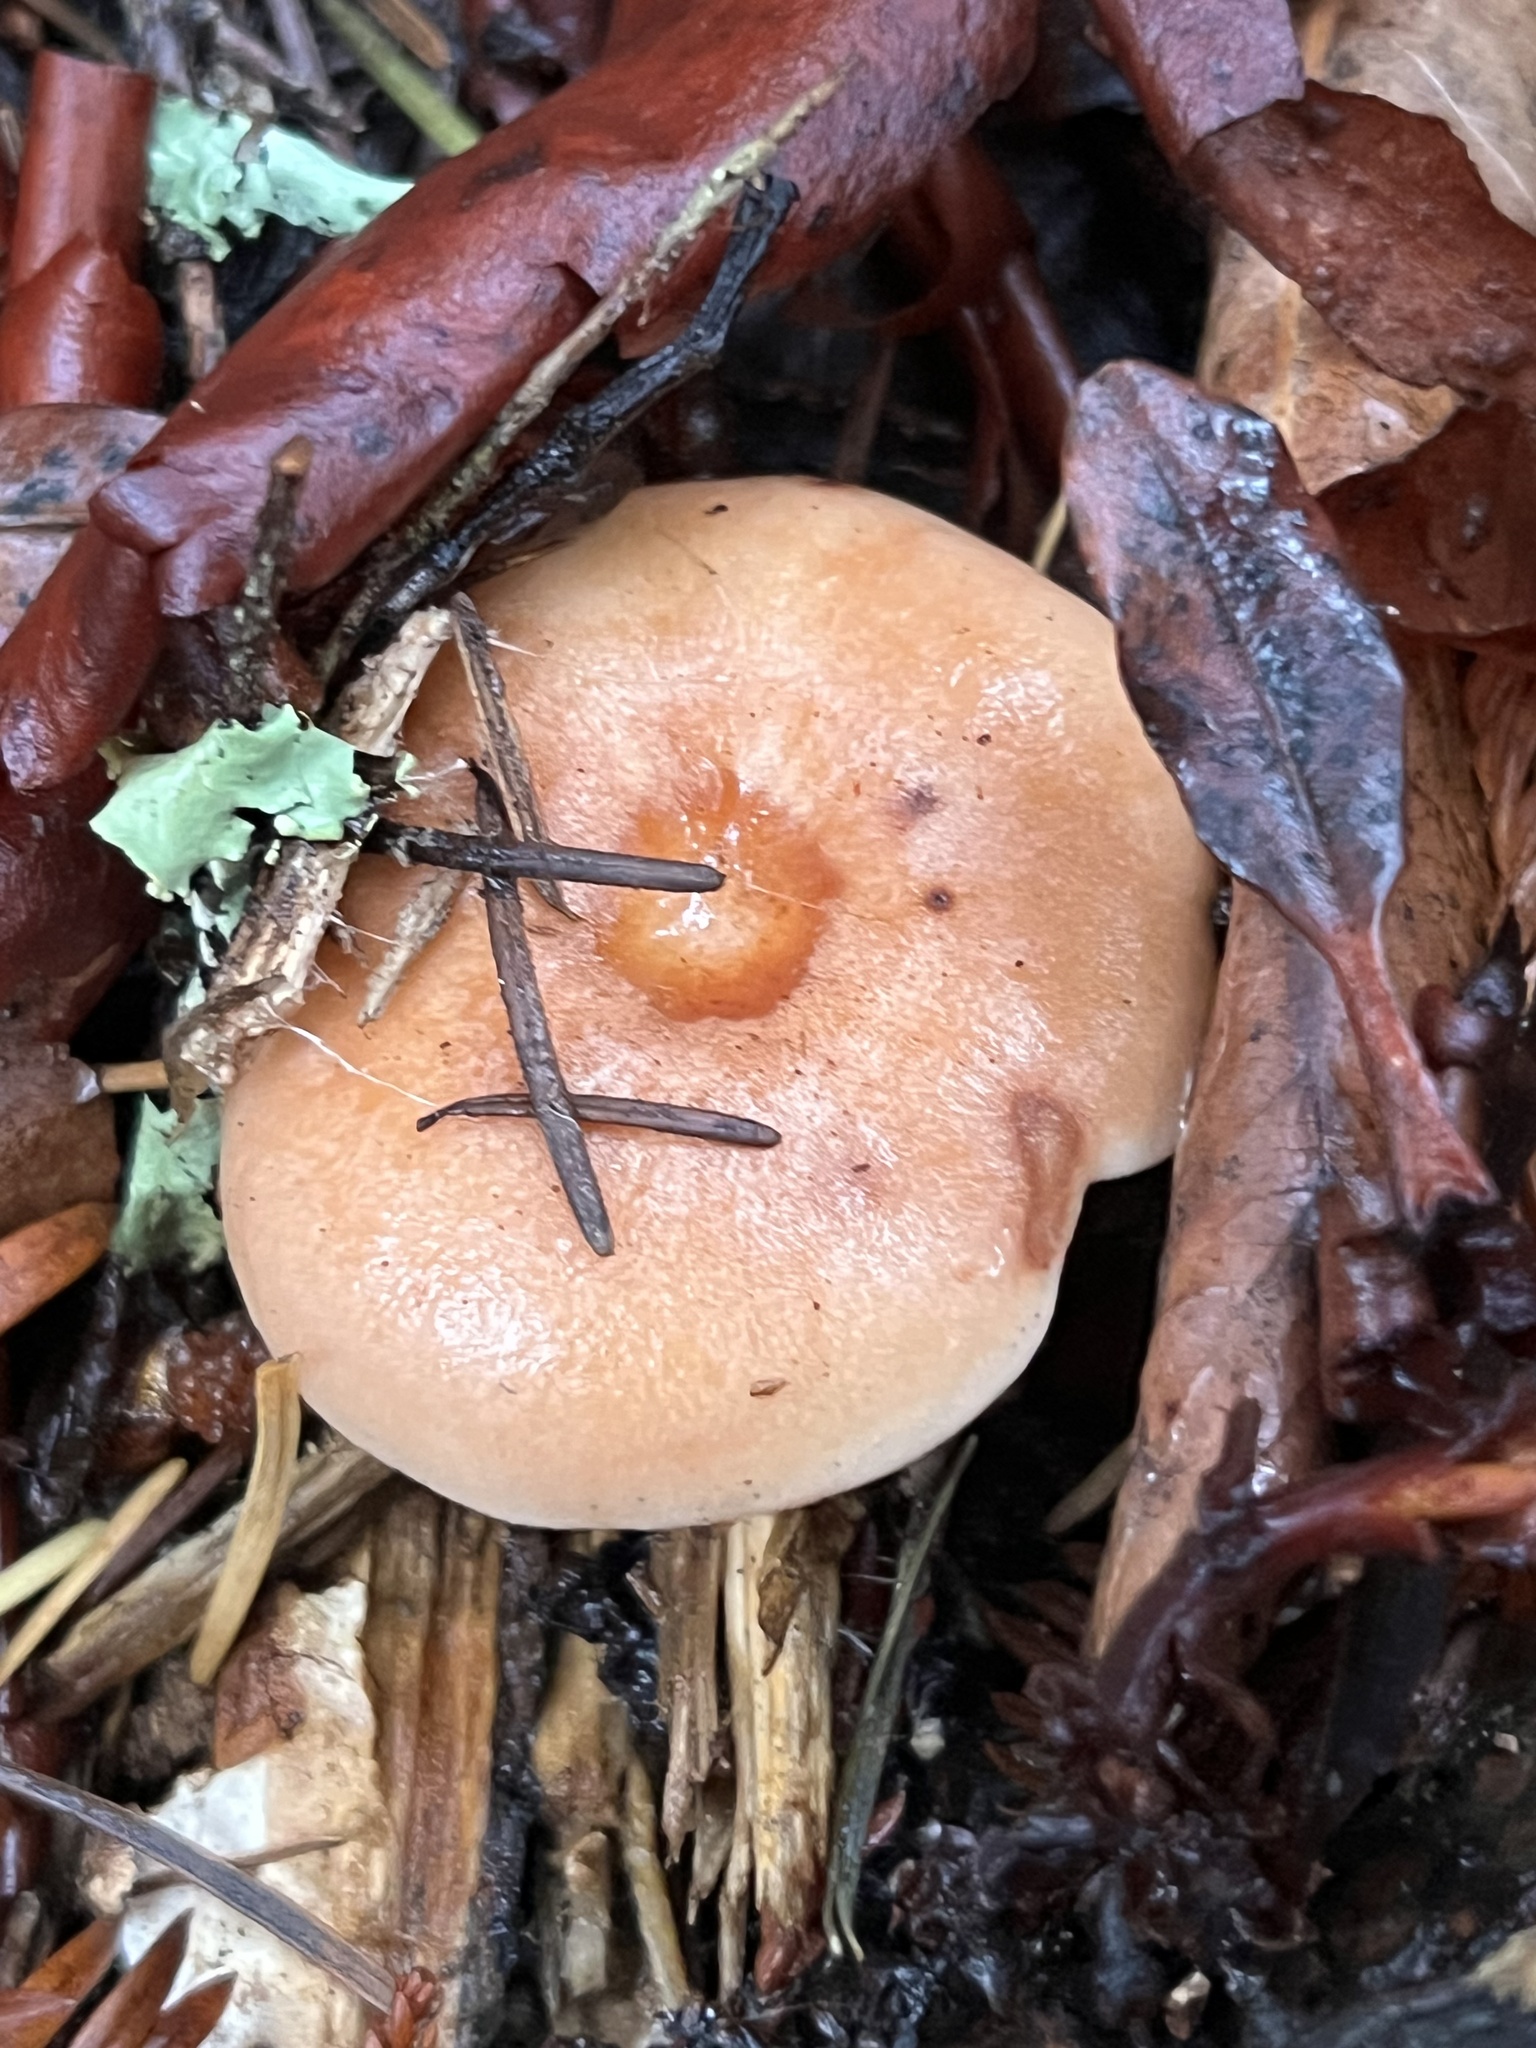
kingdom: Fungi
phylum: Basidiomycota
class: Agaricomycetes
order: Russulales
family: Russulaceae
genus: Lactarius
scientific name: Lactarius xanthogalactus
